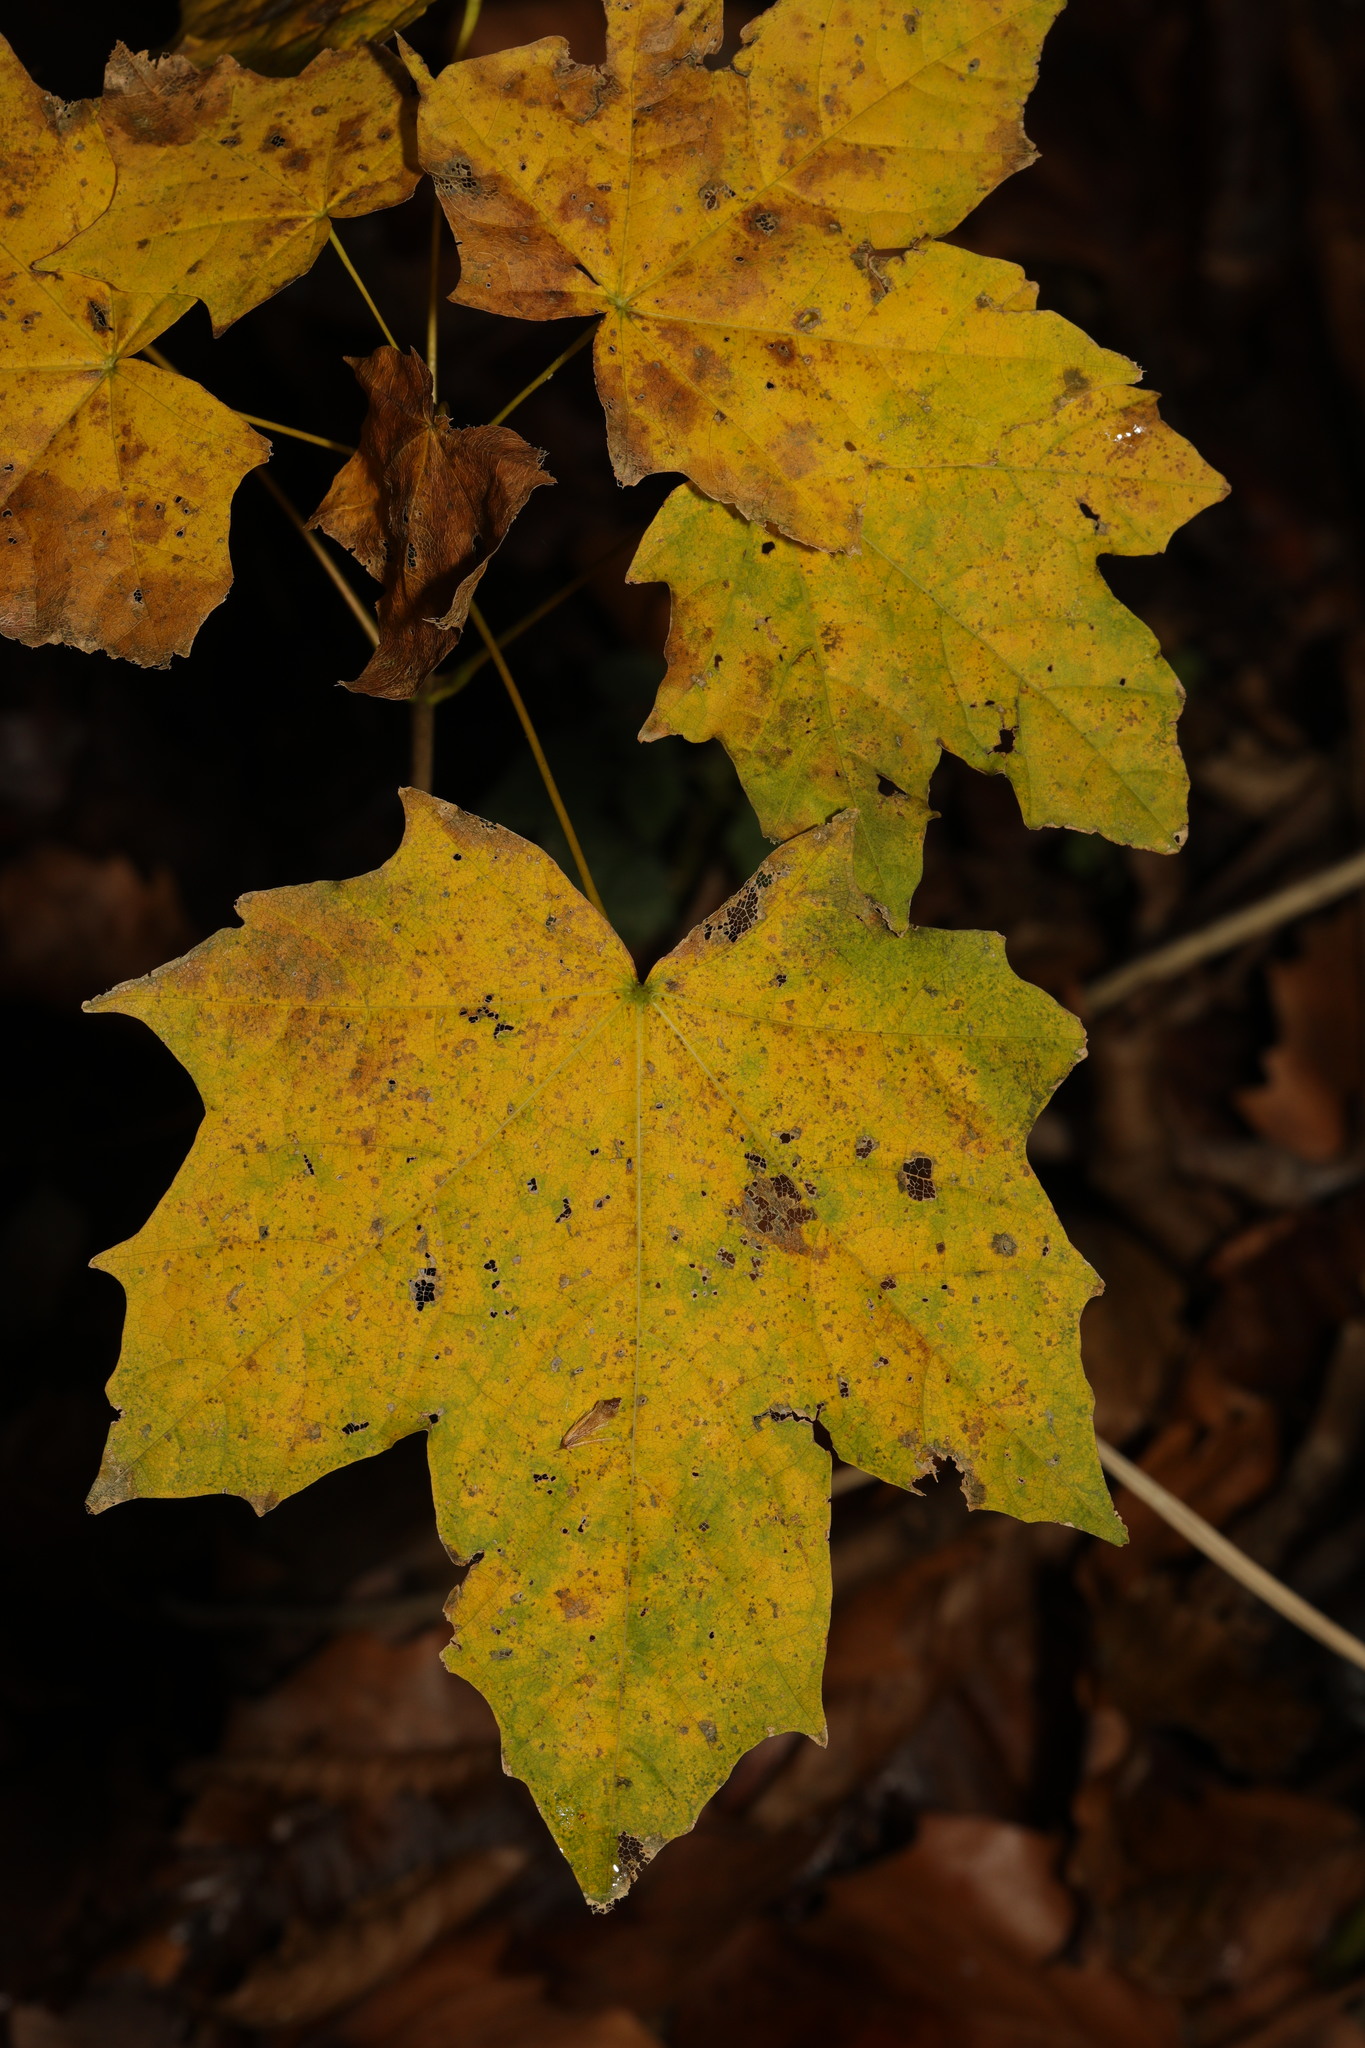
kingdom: Plantae
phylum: Tracheophyta
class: Magnoliopsida
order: Sapindales
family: Sapindaceae
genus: Acer
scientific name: Acer platanoides
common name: Norway maple
